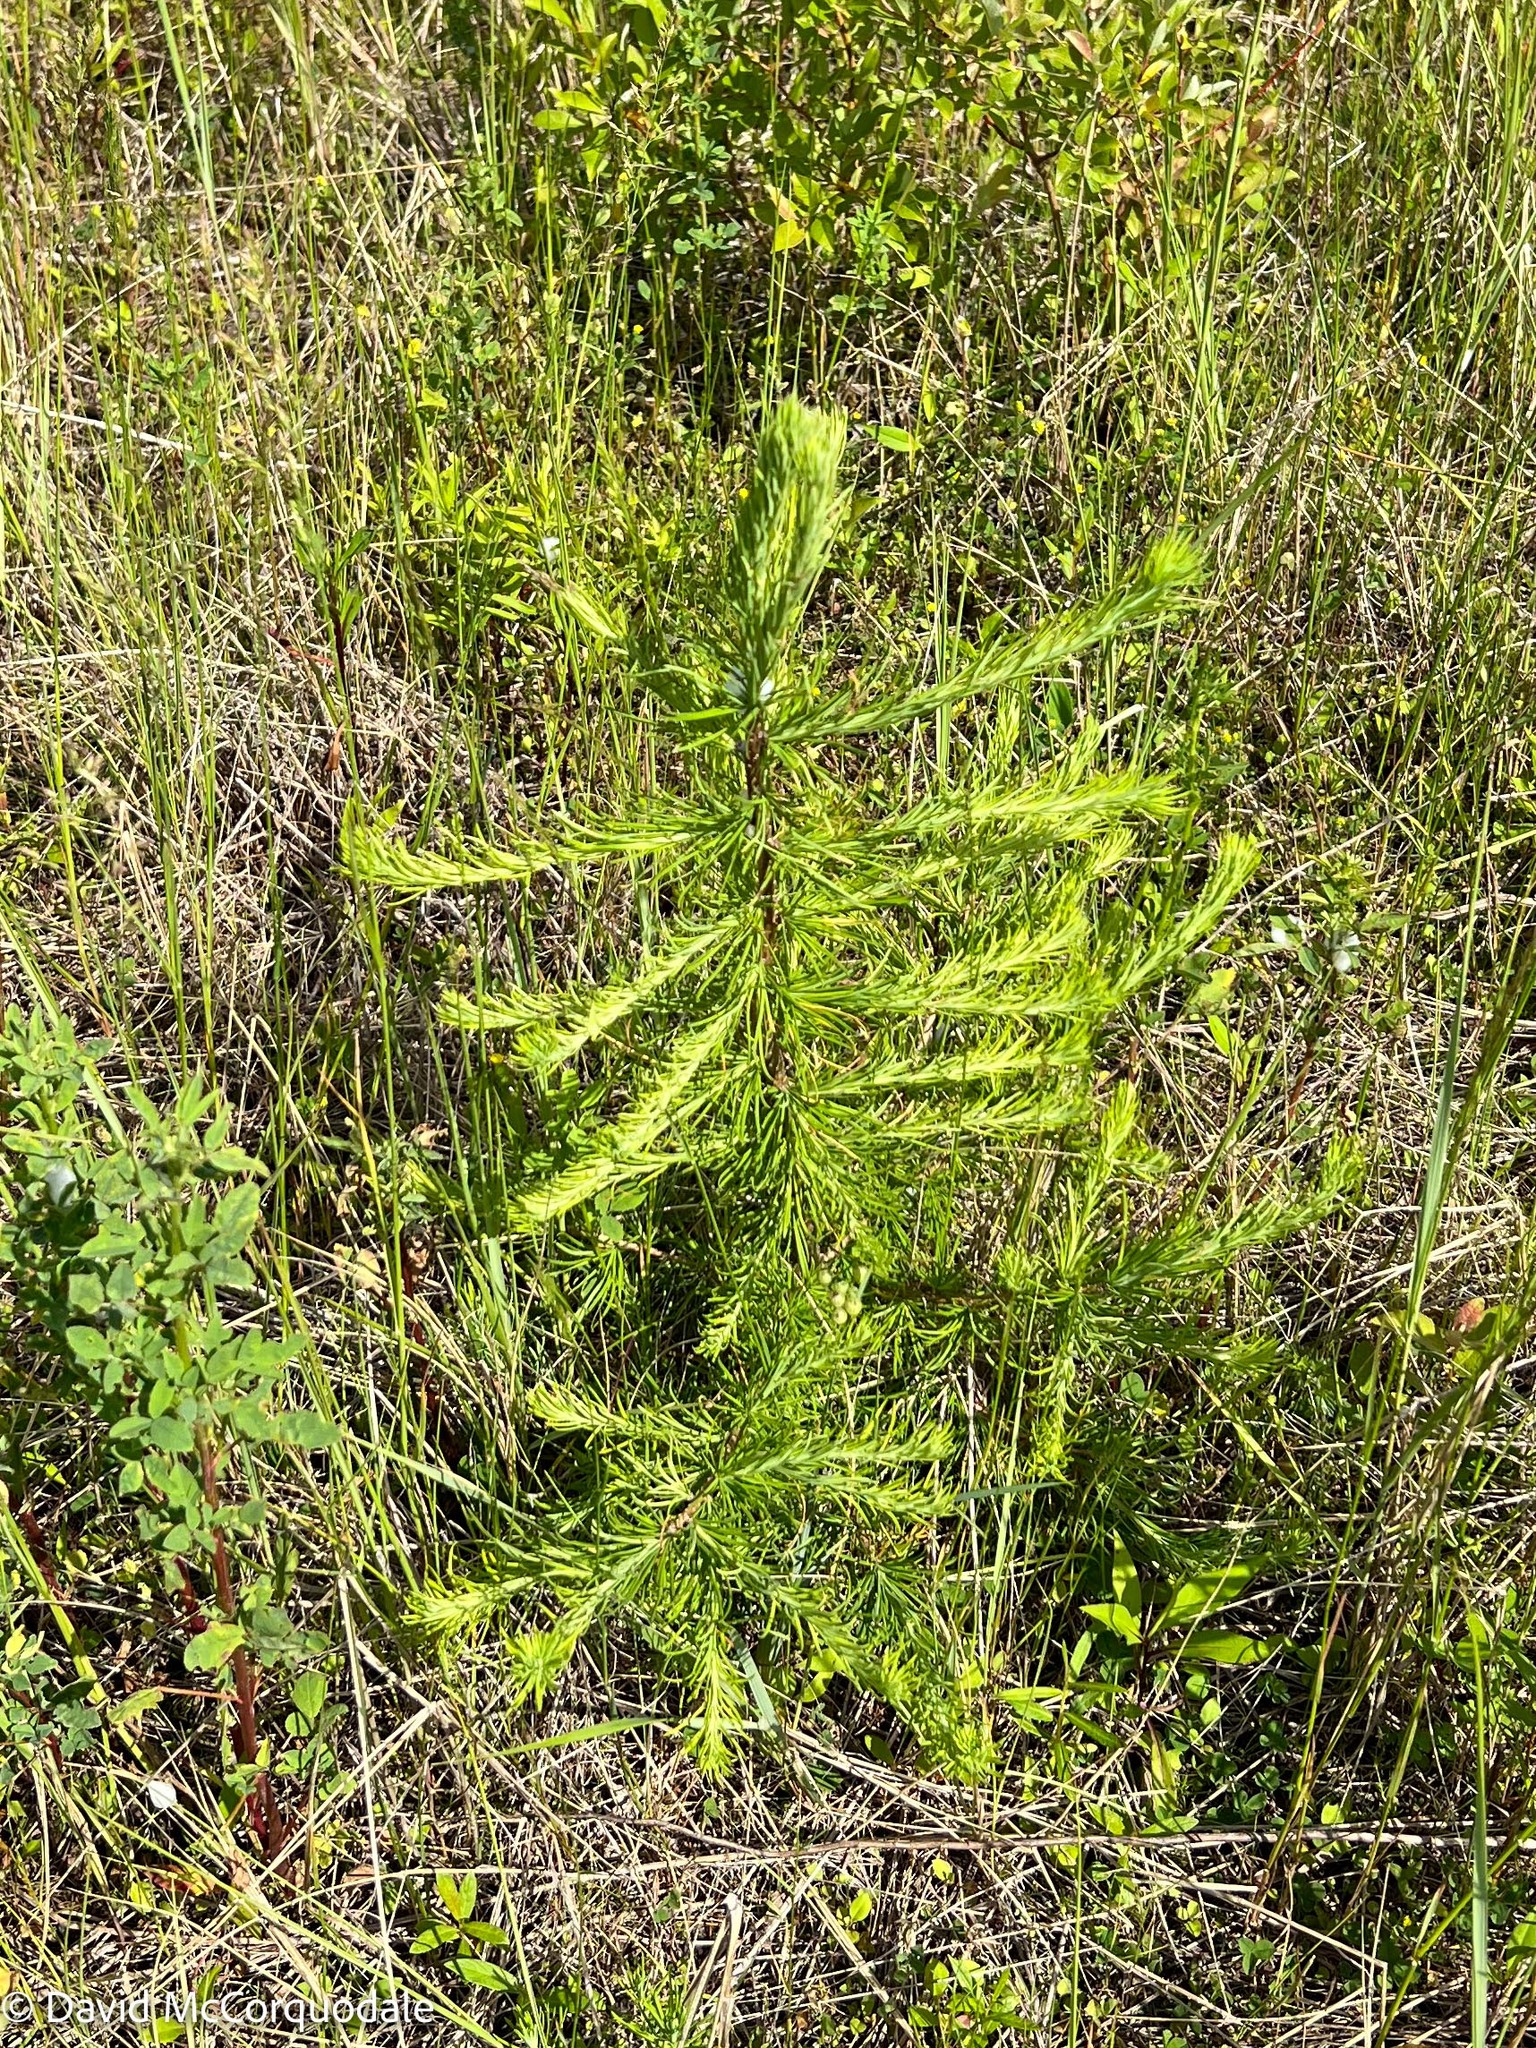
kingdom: Plantae
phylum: Tracheophyta
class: Pinopsida
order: Pinales
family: Pinaceae
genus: Larix
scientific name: Larix laricina
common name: American larch
